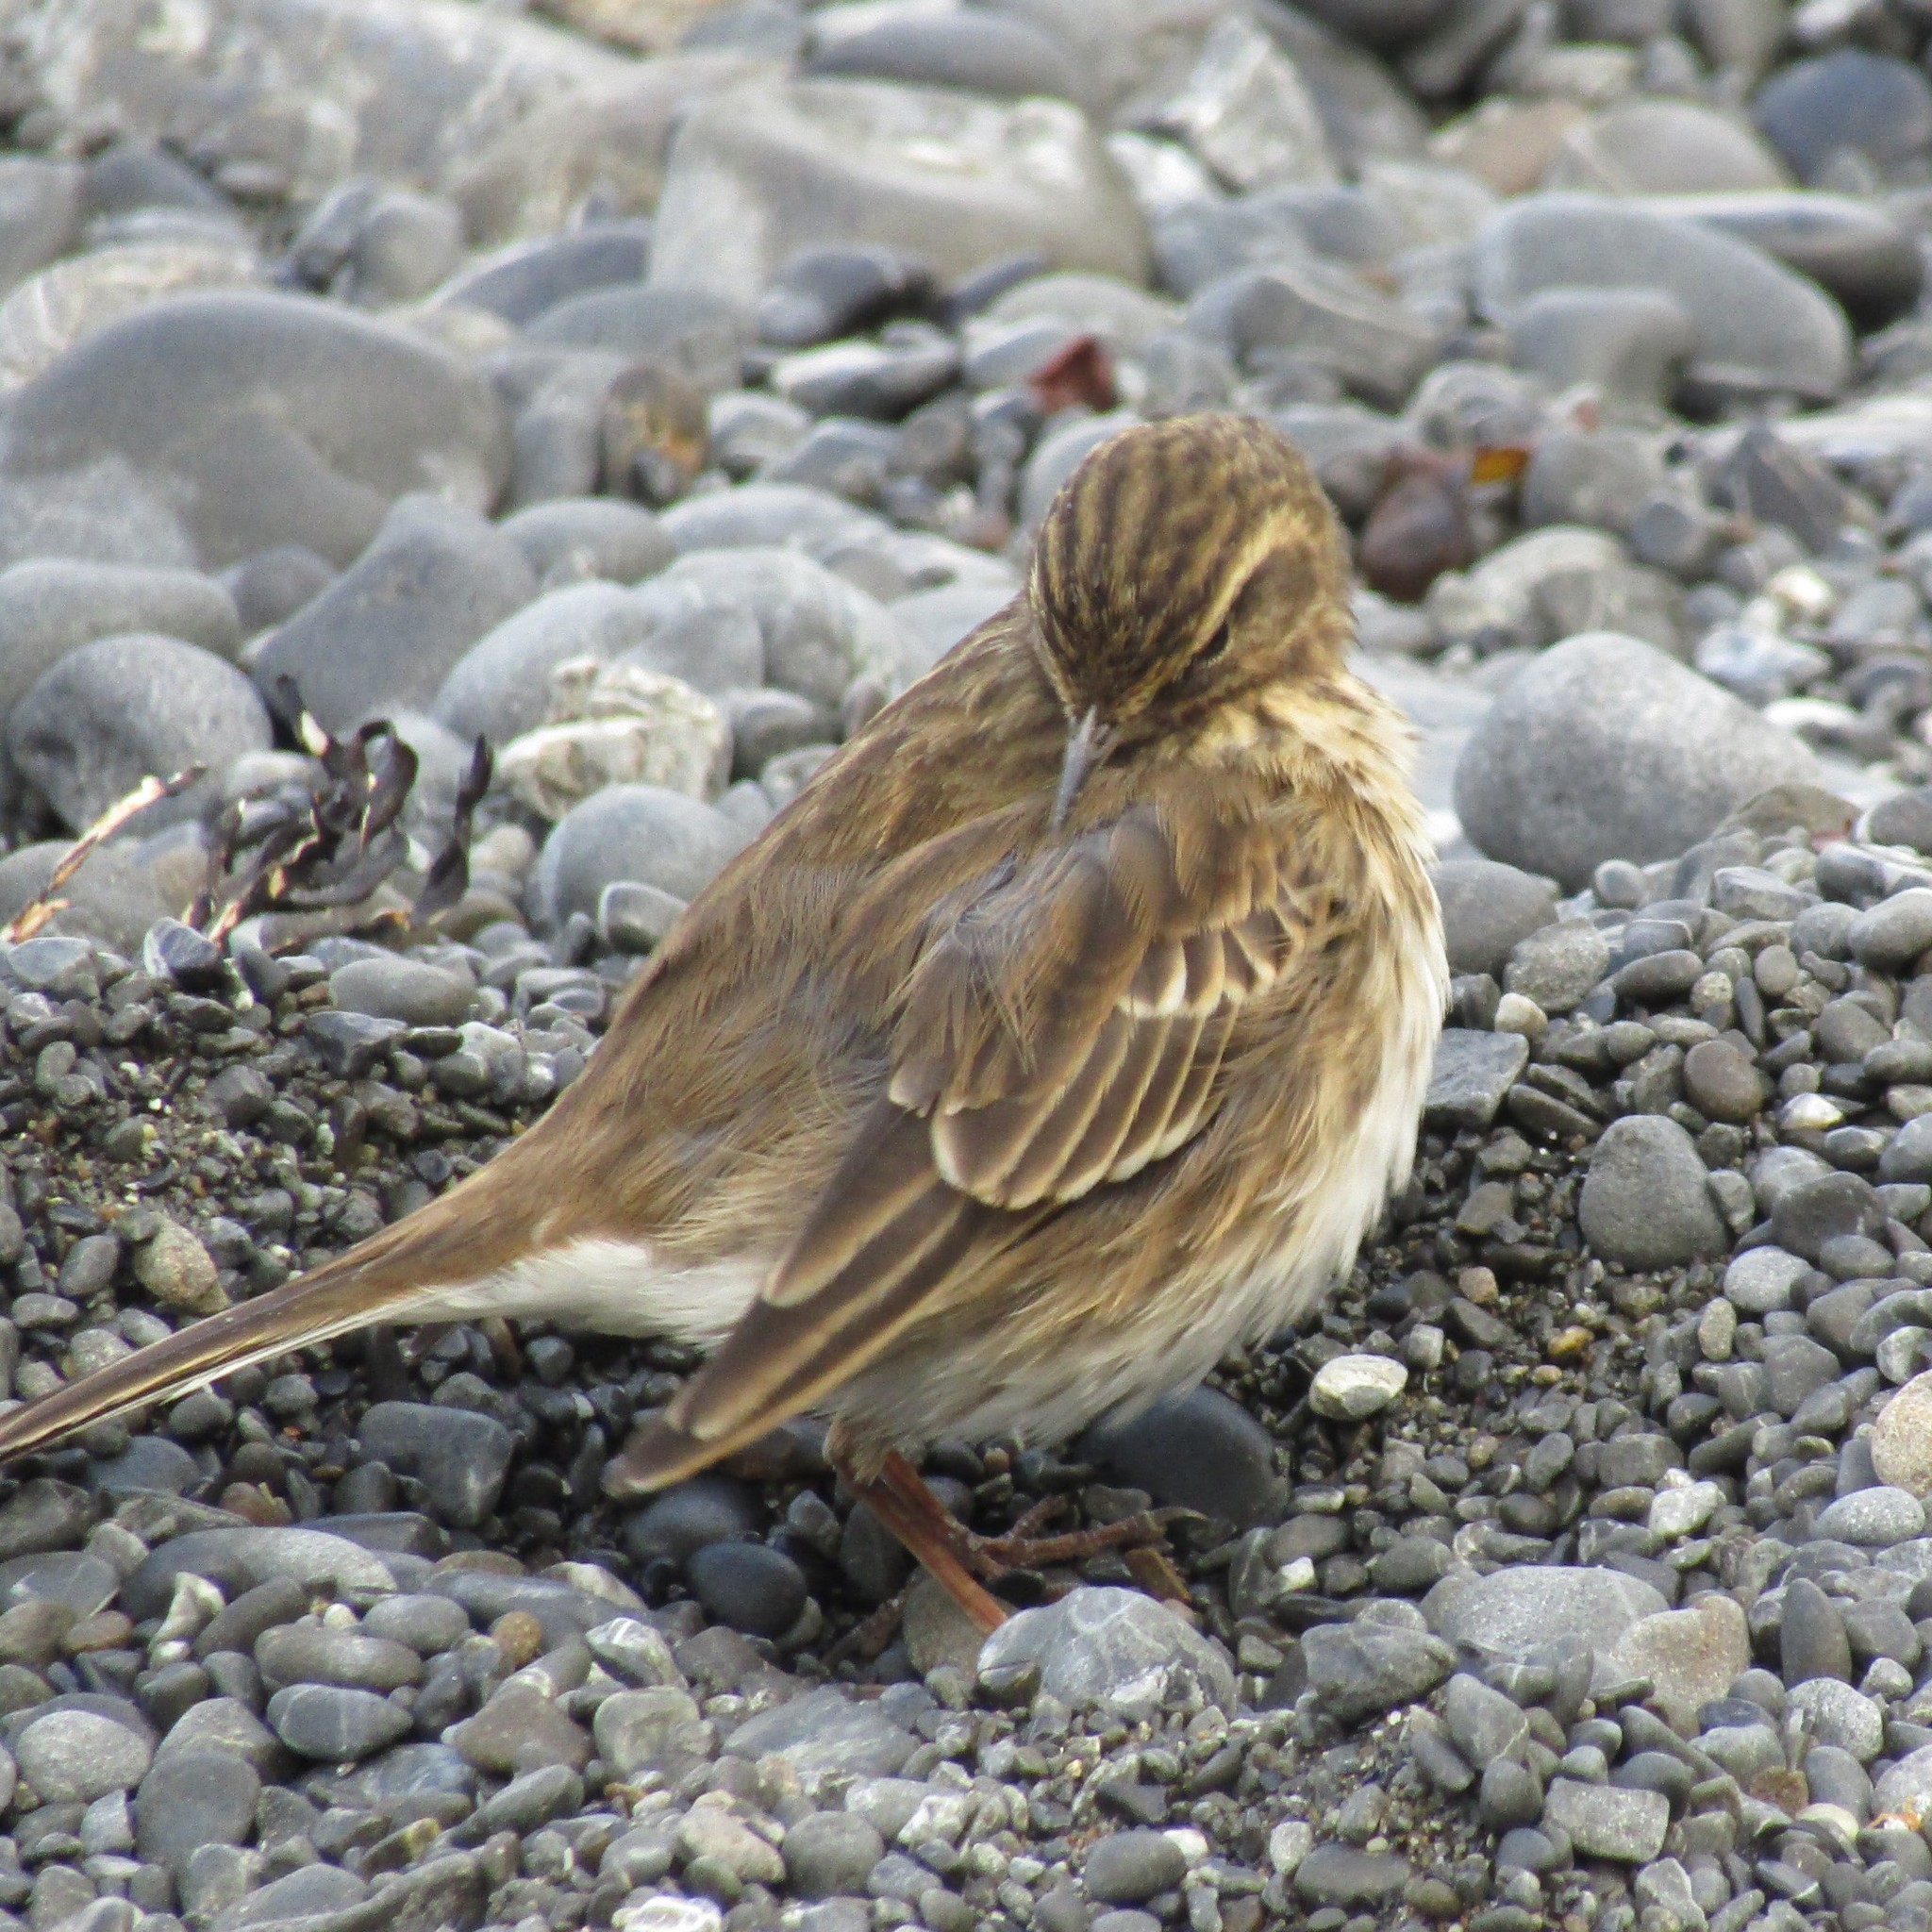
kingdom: Animalia
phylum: Chordata
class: Aves
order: Passeriformes
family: Motacillidae
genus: Anthus
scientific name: Anthus novaeseelandiae
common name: New zealand pipit
